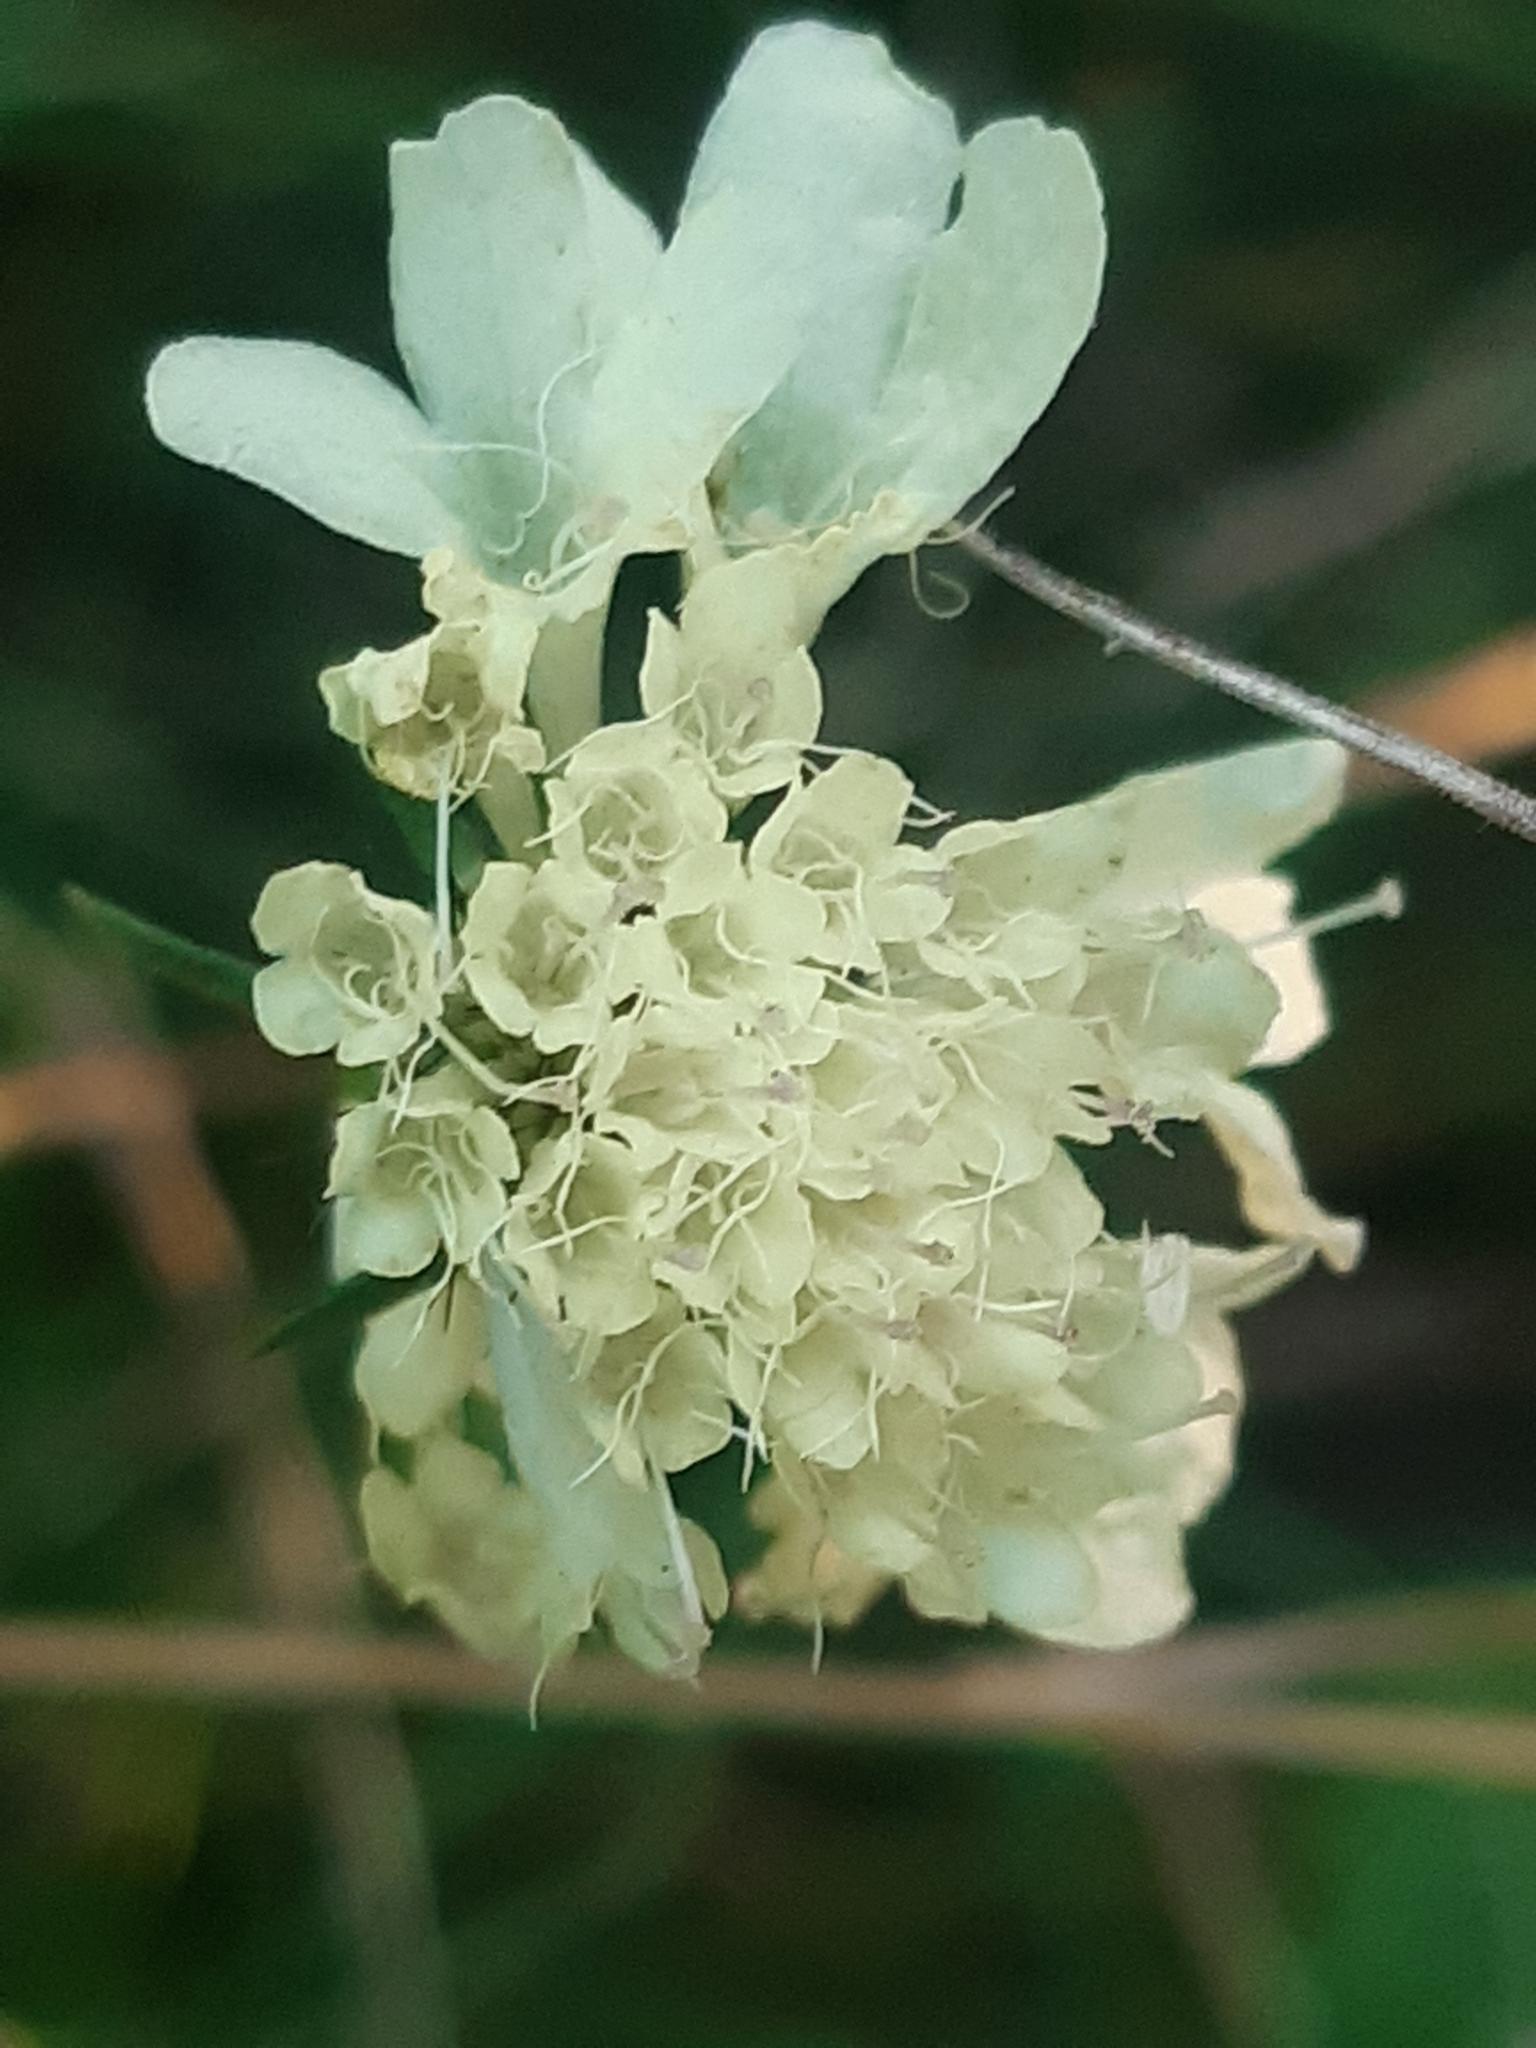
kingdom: Plantae
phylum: Tracheophyta
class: Magnoliopsida
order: Dipsacales
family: Caprifoliaceae
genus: Scabiosa
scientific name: Scabiosa ochroleuca
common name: Cream pincushions
